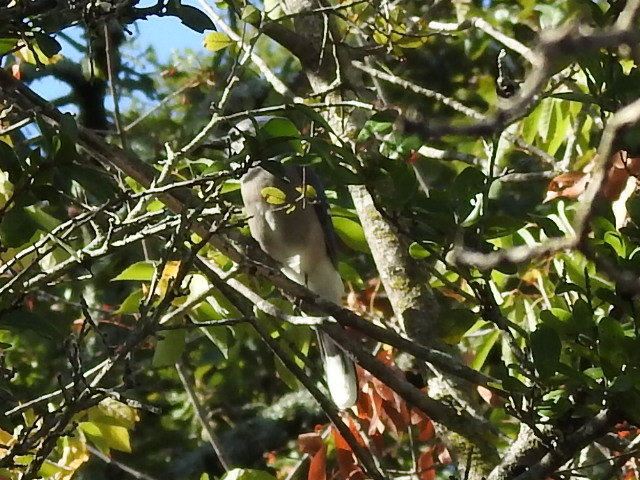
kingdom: Animalia
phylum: Chordata
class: Aves
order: Passeriformes
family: Corvidae
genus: Cyanocitta
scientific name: Cyanocitta cristata
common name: Blue jay
